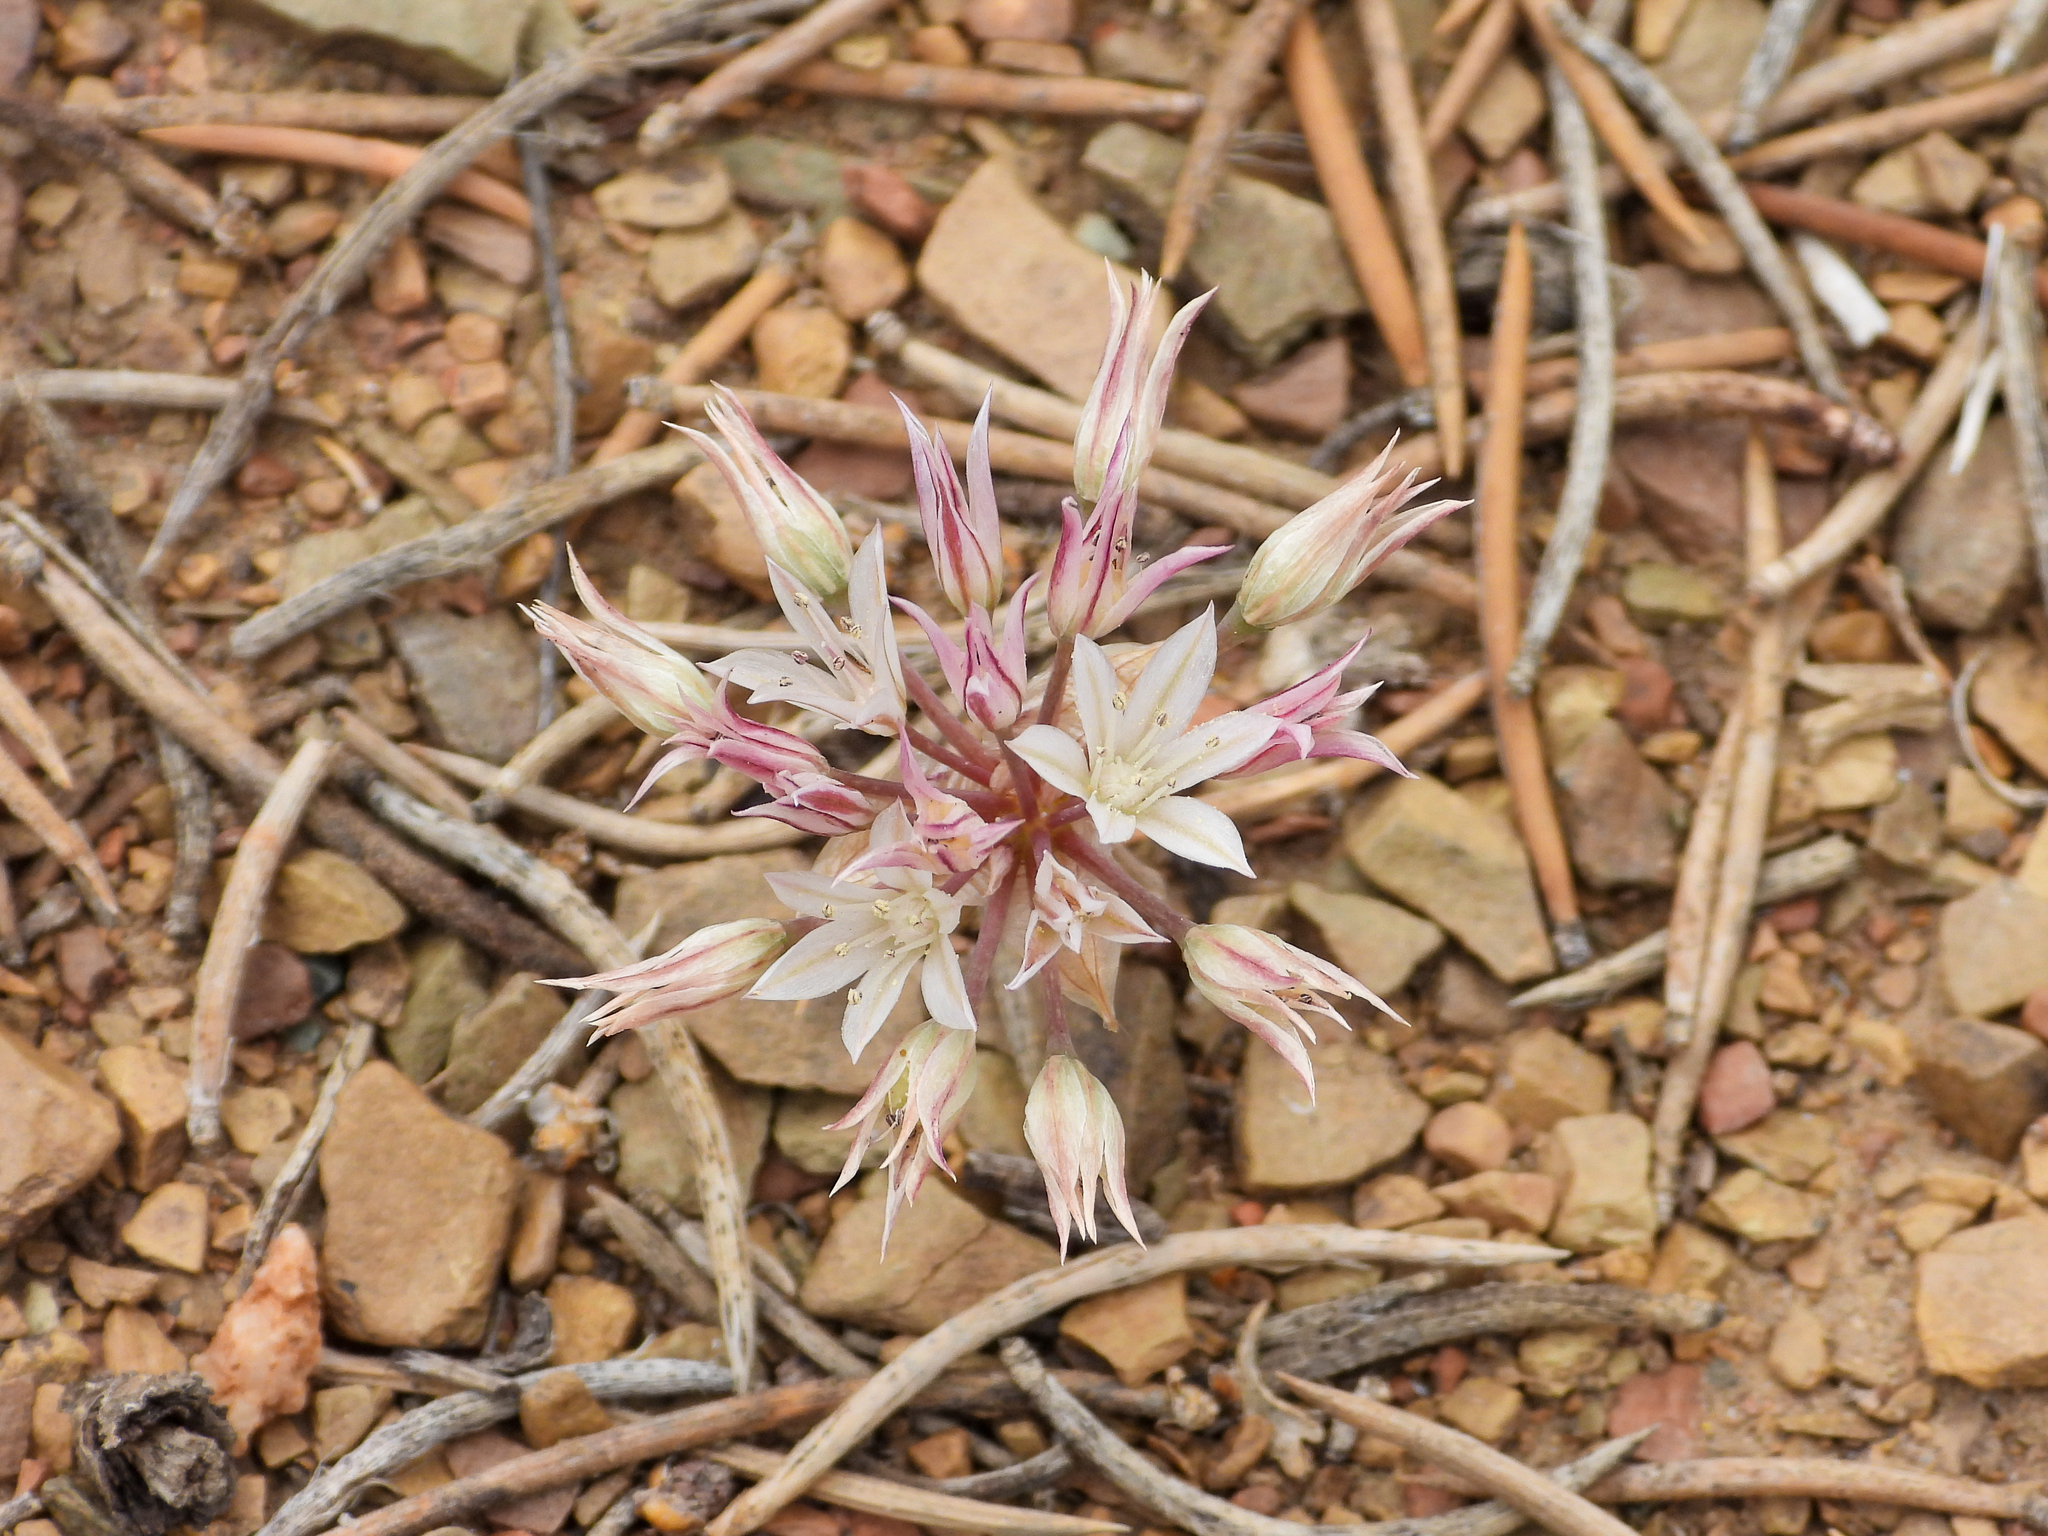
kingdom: Plantae
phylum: Tracheophyta
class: Liliopsida
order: Asparagales
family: Amaryllidaceae
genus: Allium
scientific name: Allium atrorubens
